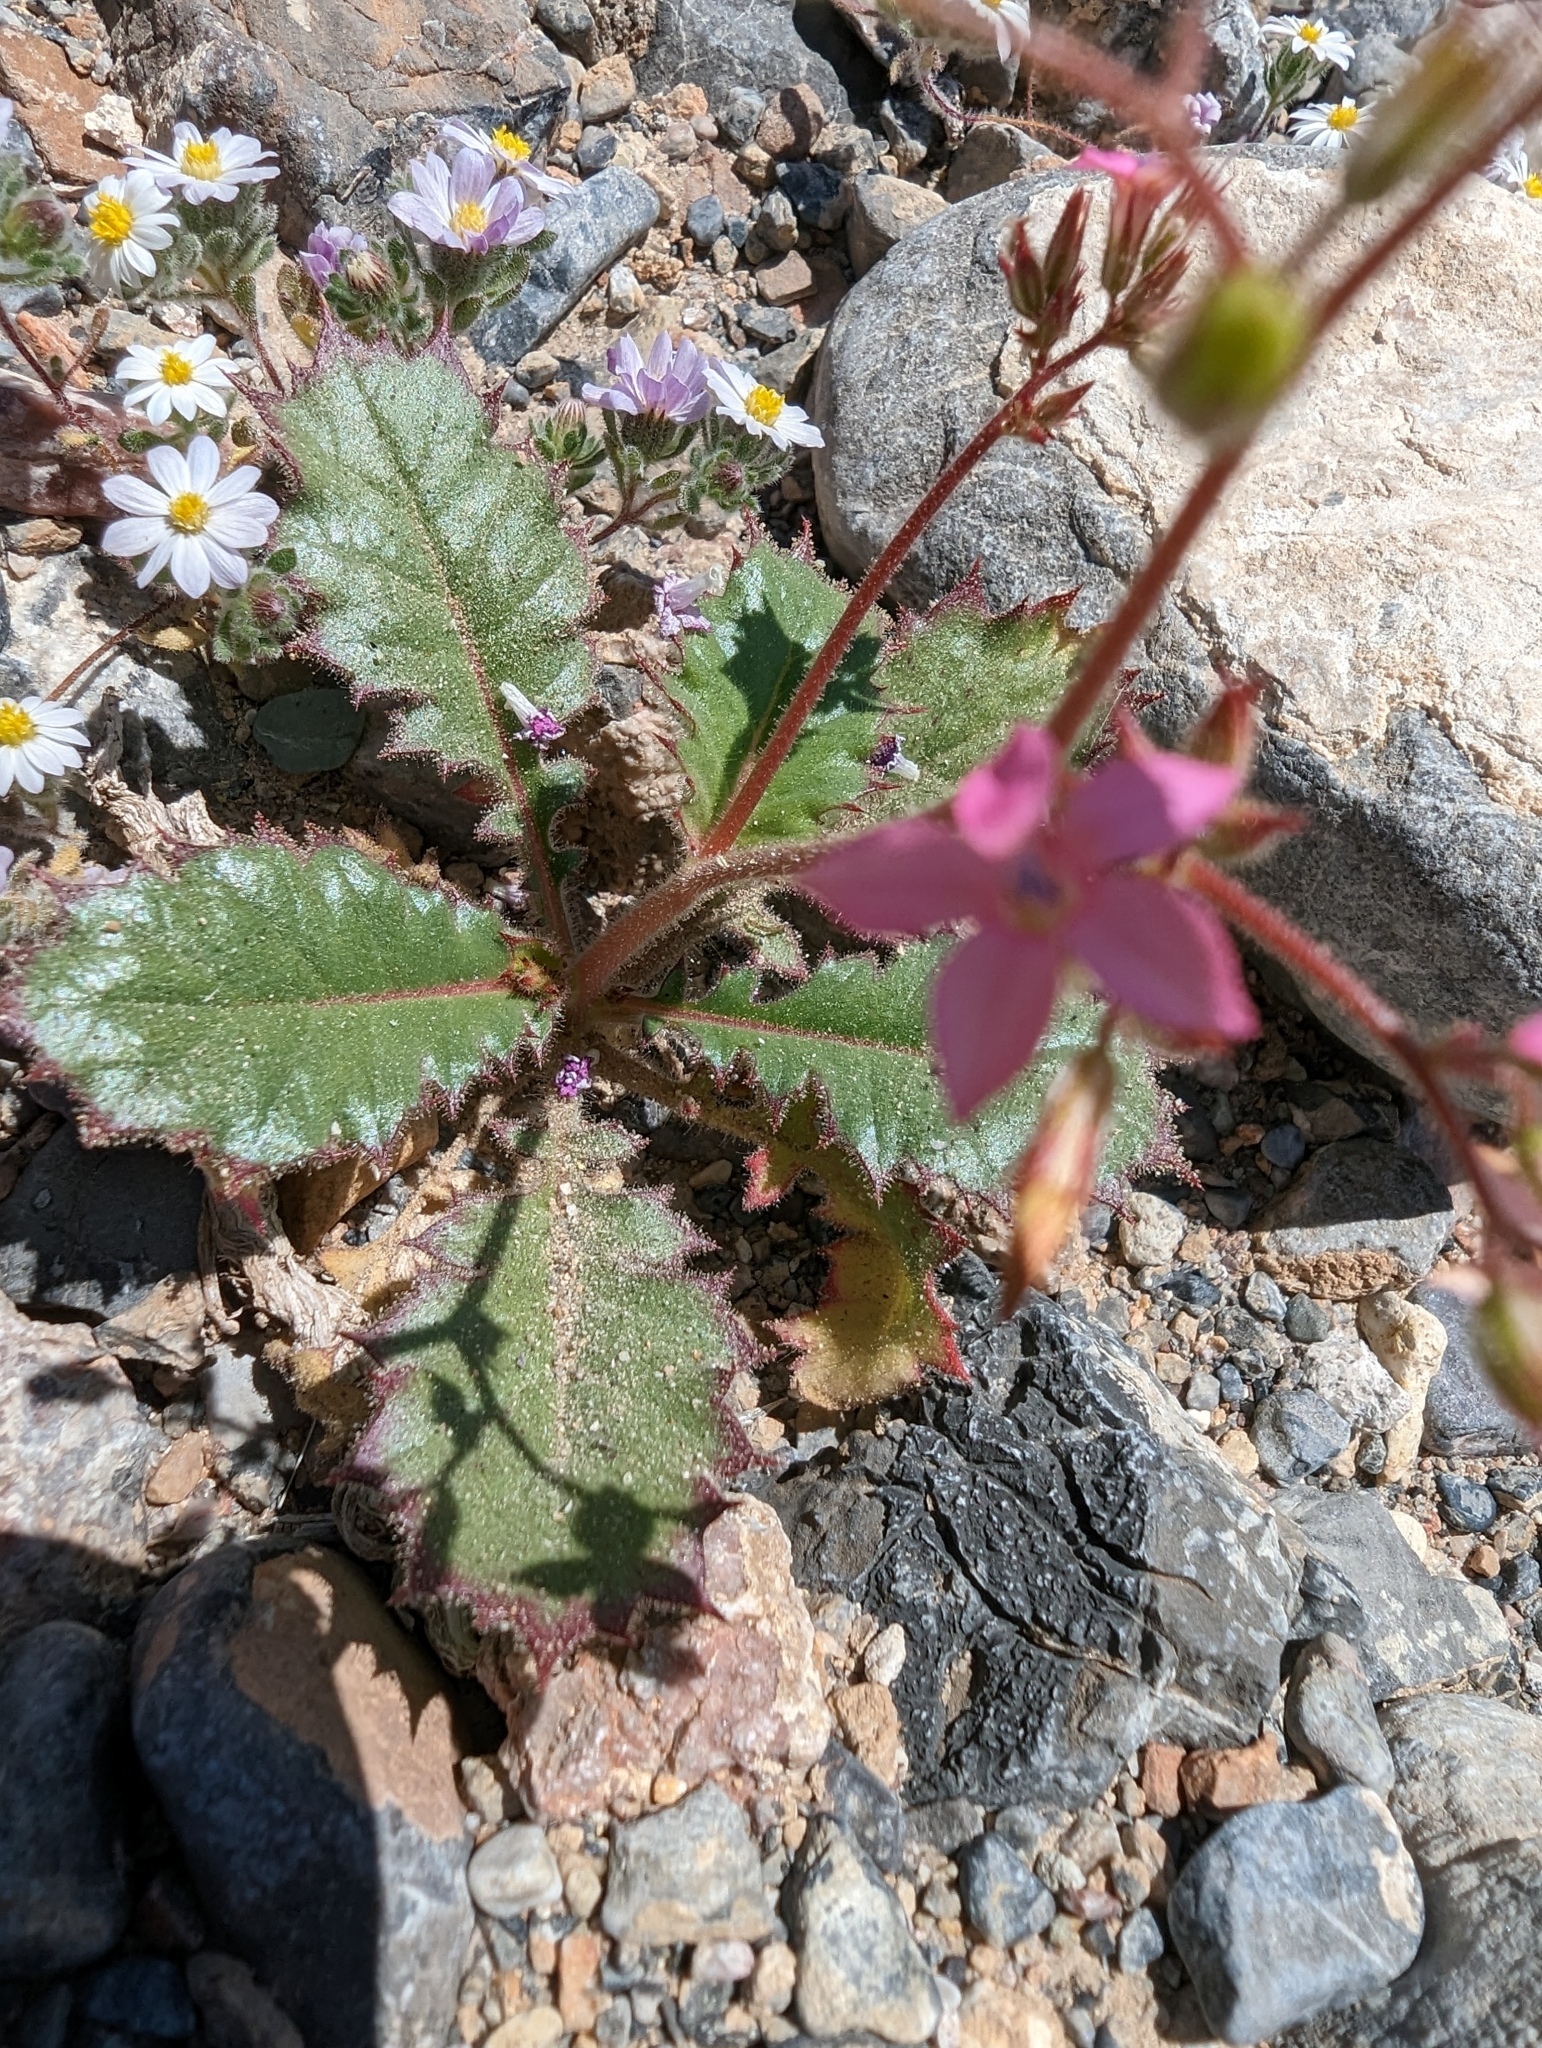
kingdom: Plantae
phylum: Tracheophyta
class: Magnoliopsida
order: Ericales
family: Polemoniaceae
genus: Aliciella
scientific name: Aliciella latifolia
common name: Broad-leaf gilia
